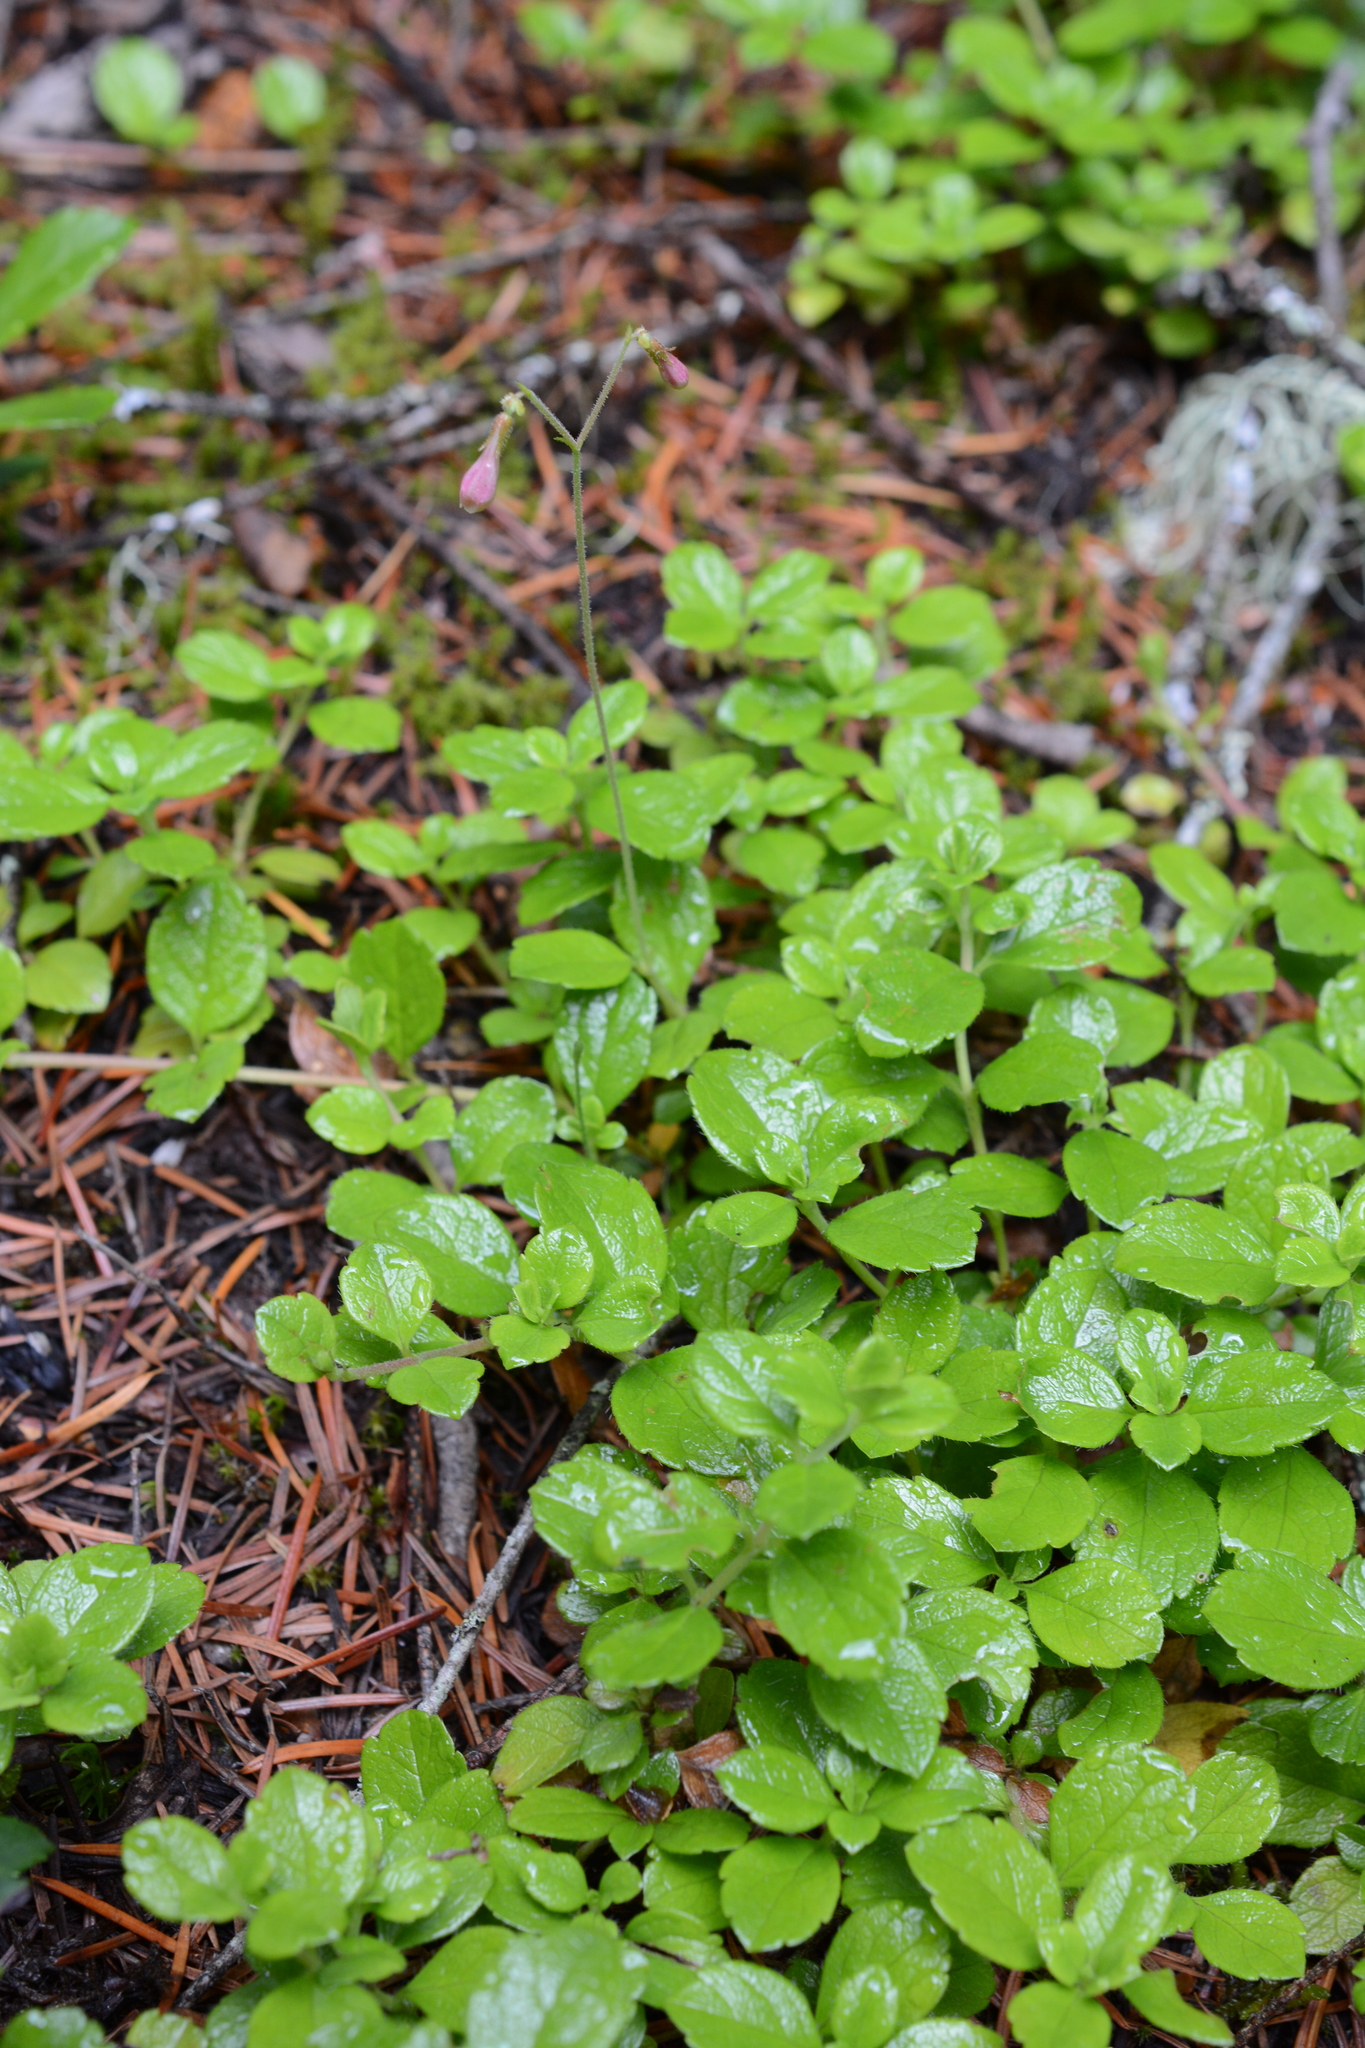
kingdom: Plantae
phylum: Tracheophyta
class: Magnoliopsida
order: Dipsacales
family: Caprifoliaceae
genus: Linnaea
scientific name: Linnaea borealis
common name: Twinflower
